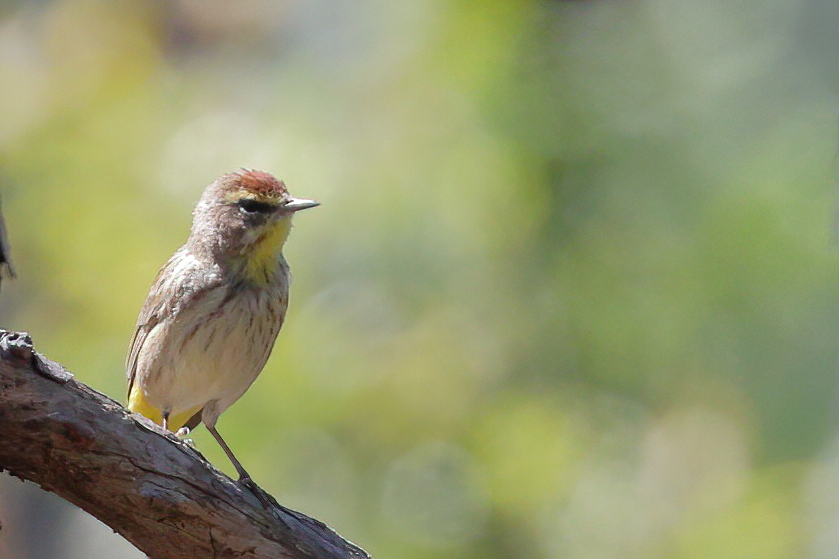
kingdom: Animalia
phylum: Chordata
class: Aves
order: Passeriformes
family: Parulidae
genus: Setophaga
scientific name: Setophaga palmarum
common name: Palm warbler
